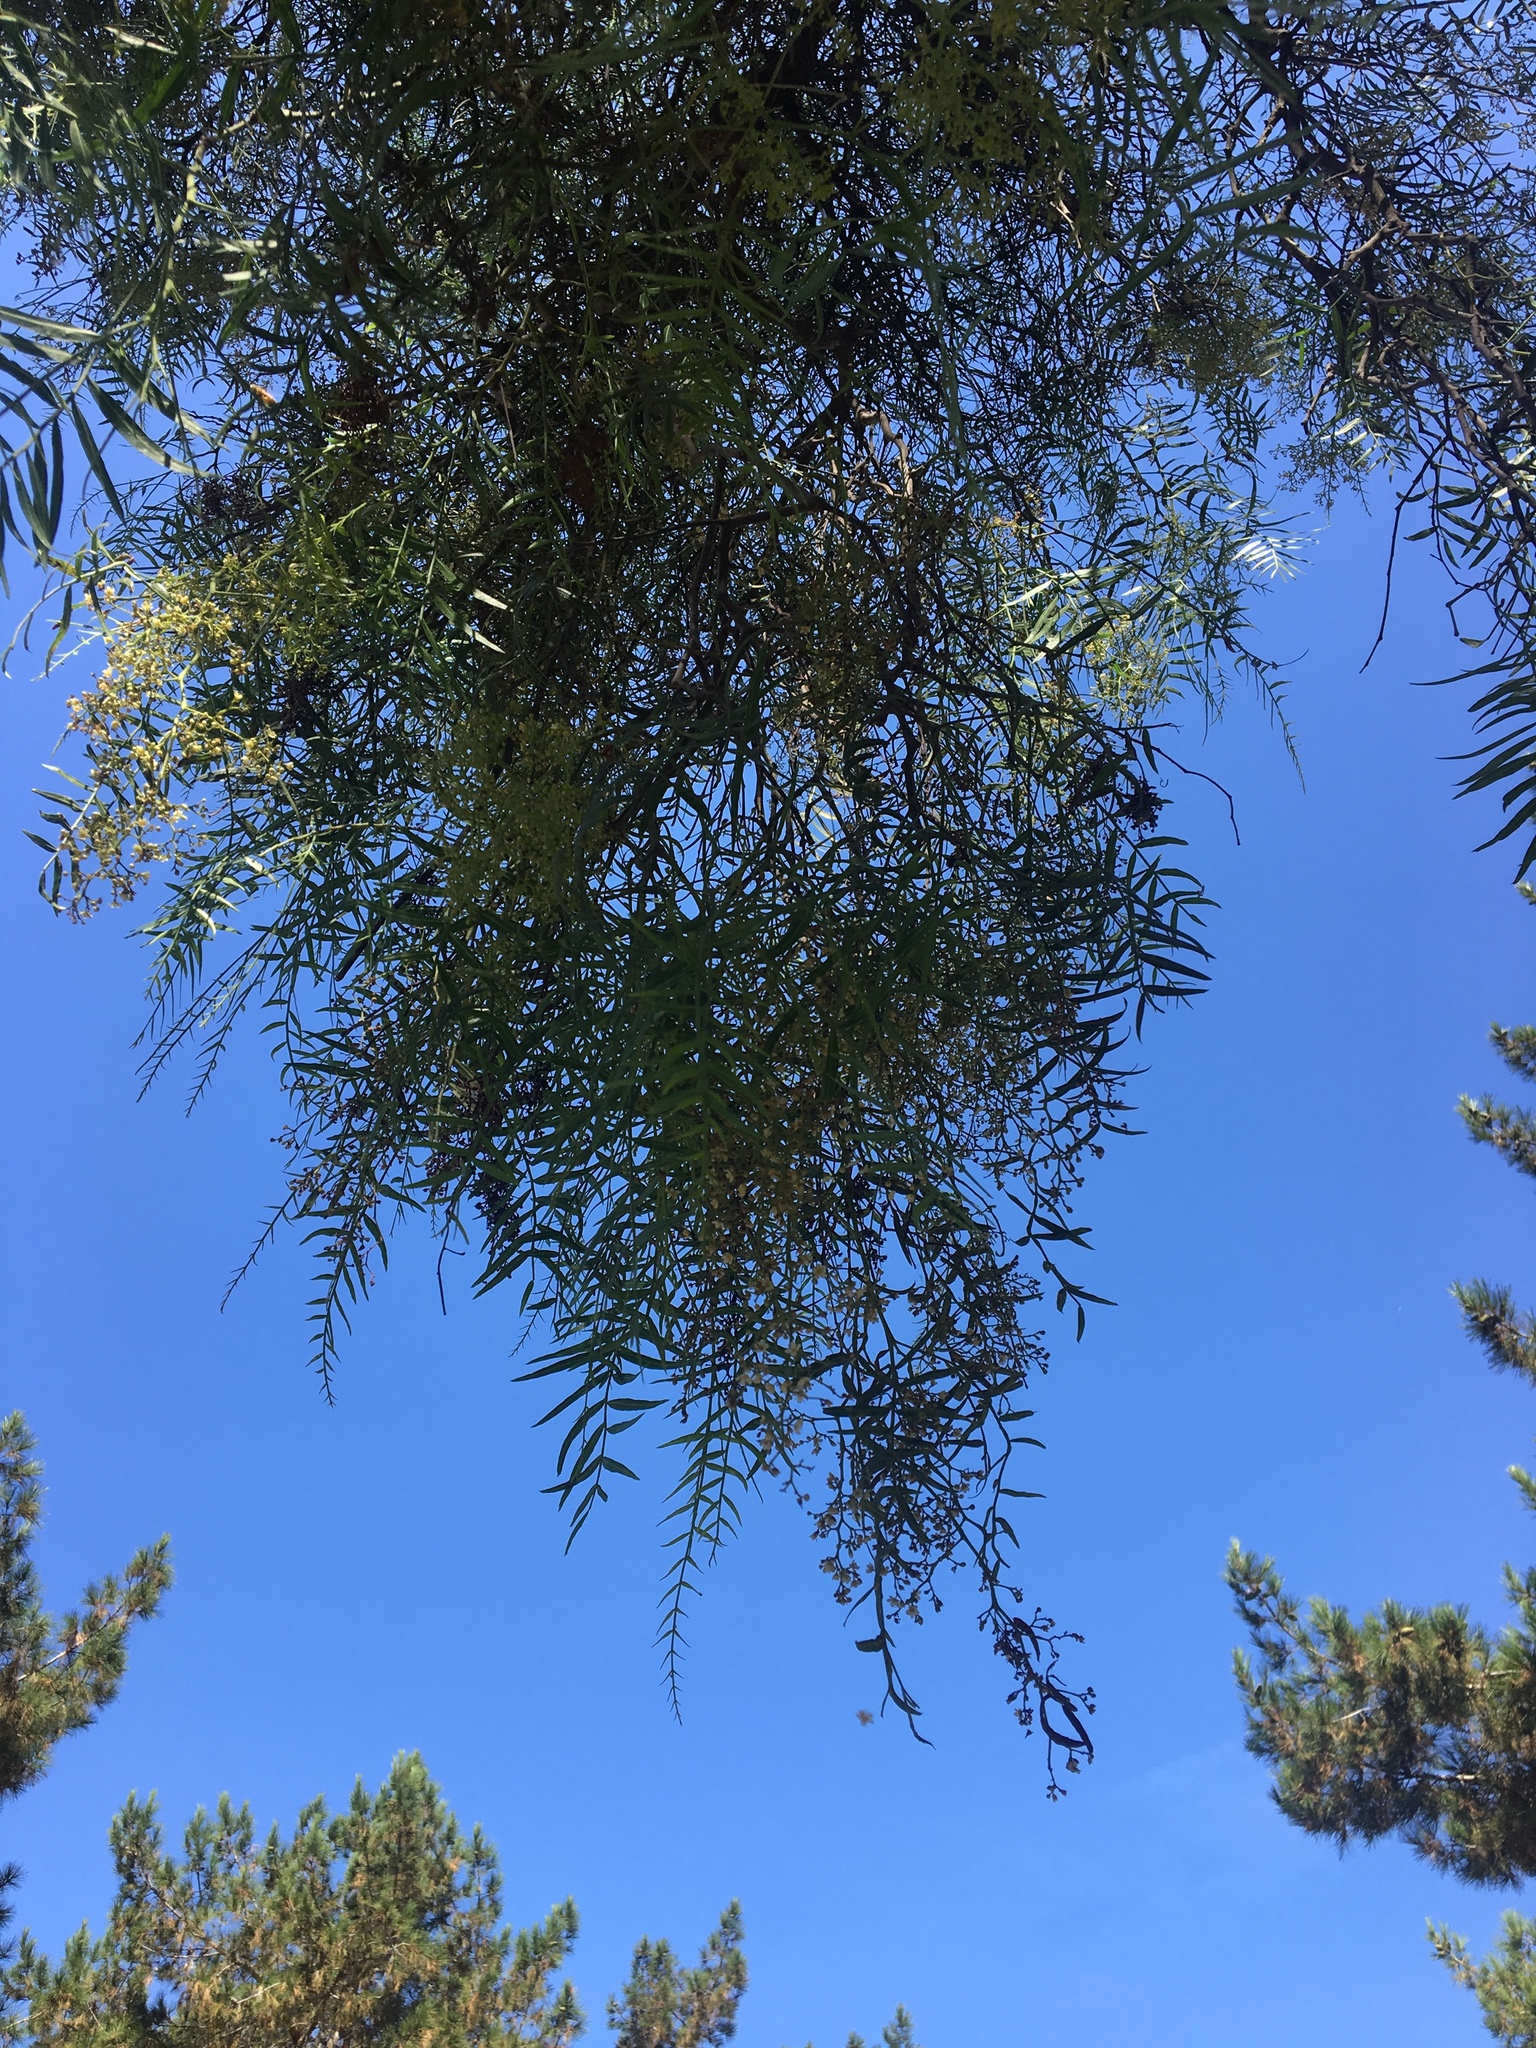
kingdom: Plantae
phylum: Tracheophyta
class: Magnoliopsida
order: Sapindales
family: Anacardiaceae
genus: Schinus
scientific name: Schinus molle
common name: Peruvian peppertree
